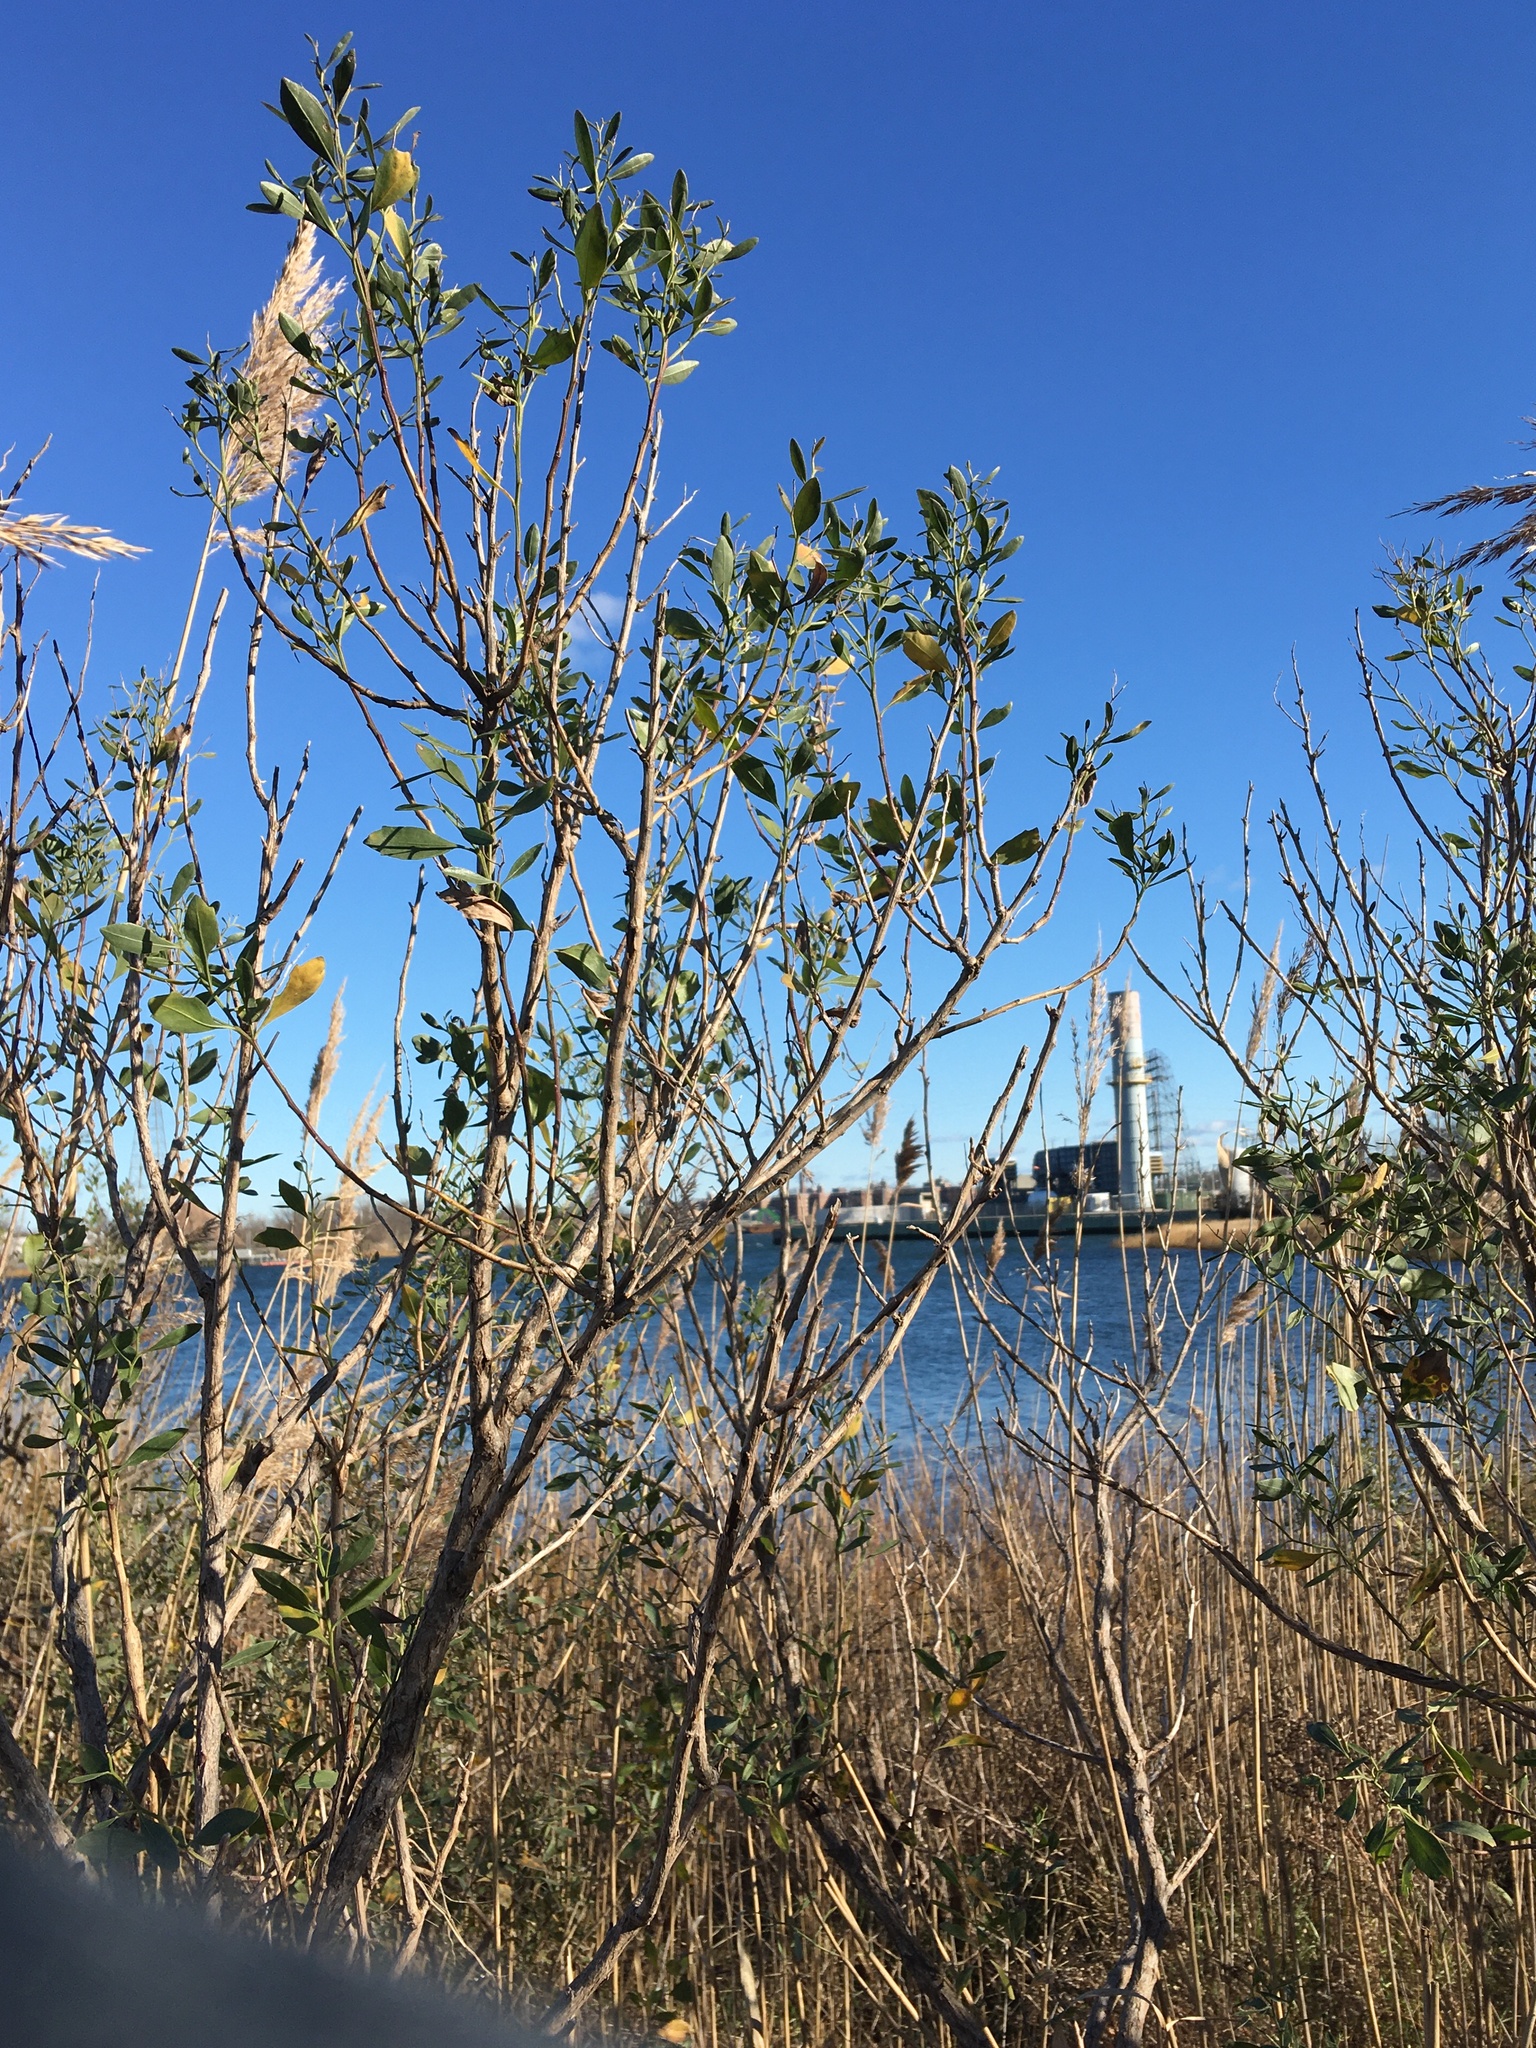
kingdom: Plantae
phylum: Tracheophyta
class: Magnoliopsida
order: Asterales
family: Asteraceae
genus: Baccharis
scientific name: Baccharis halimifolia
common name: Eastern baccharis
